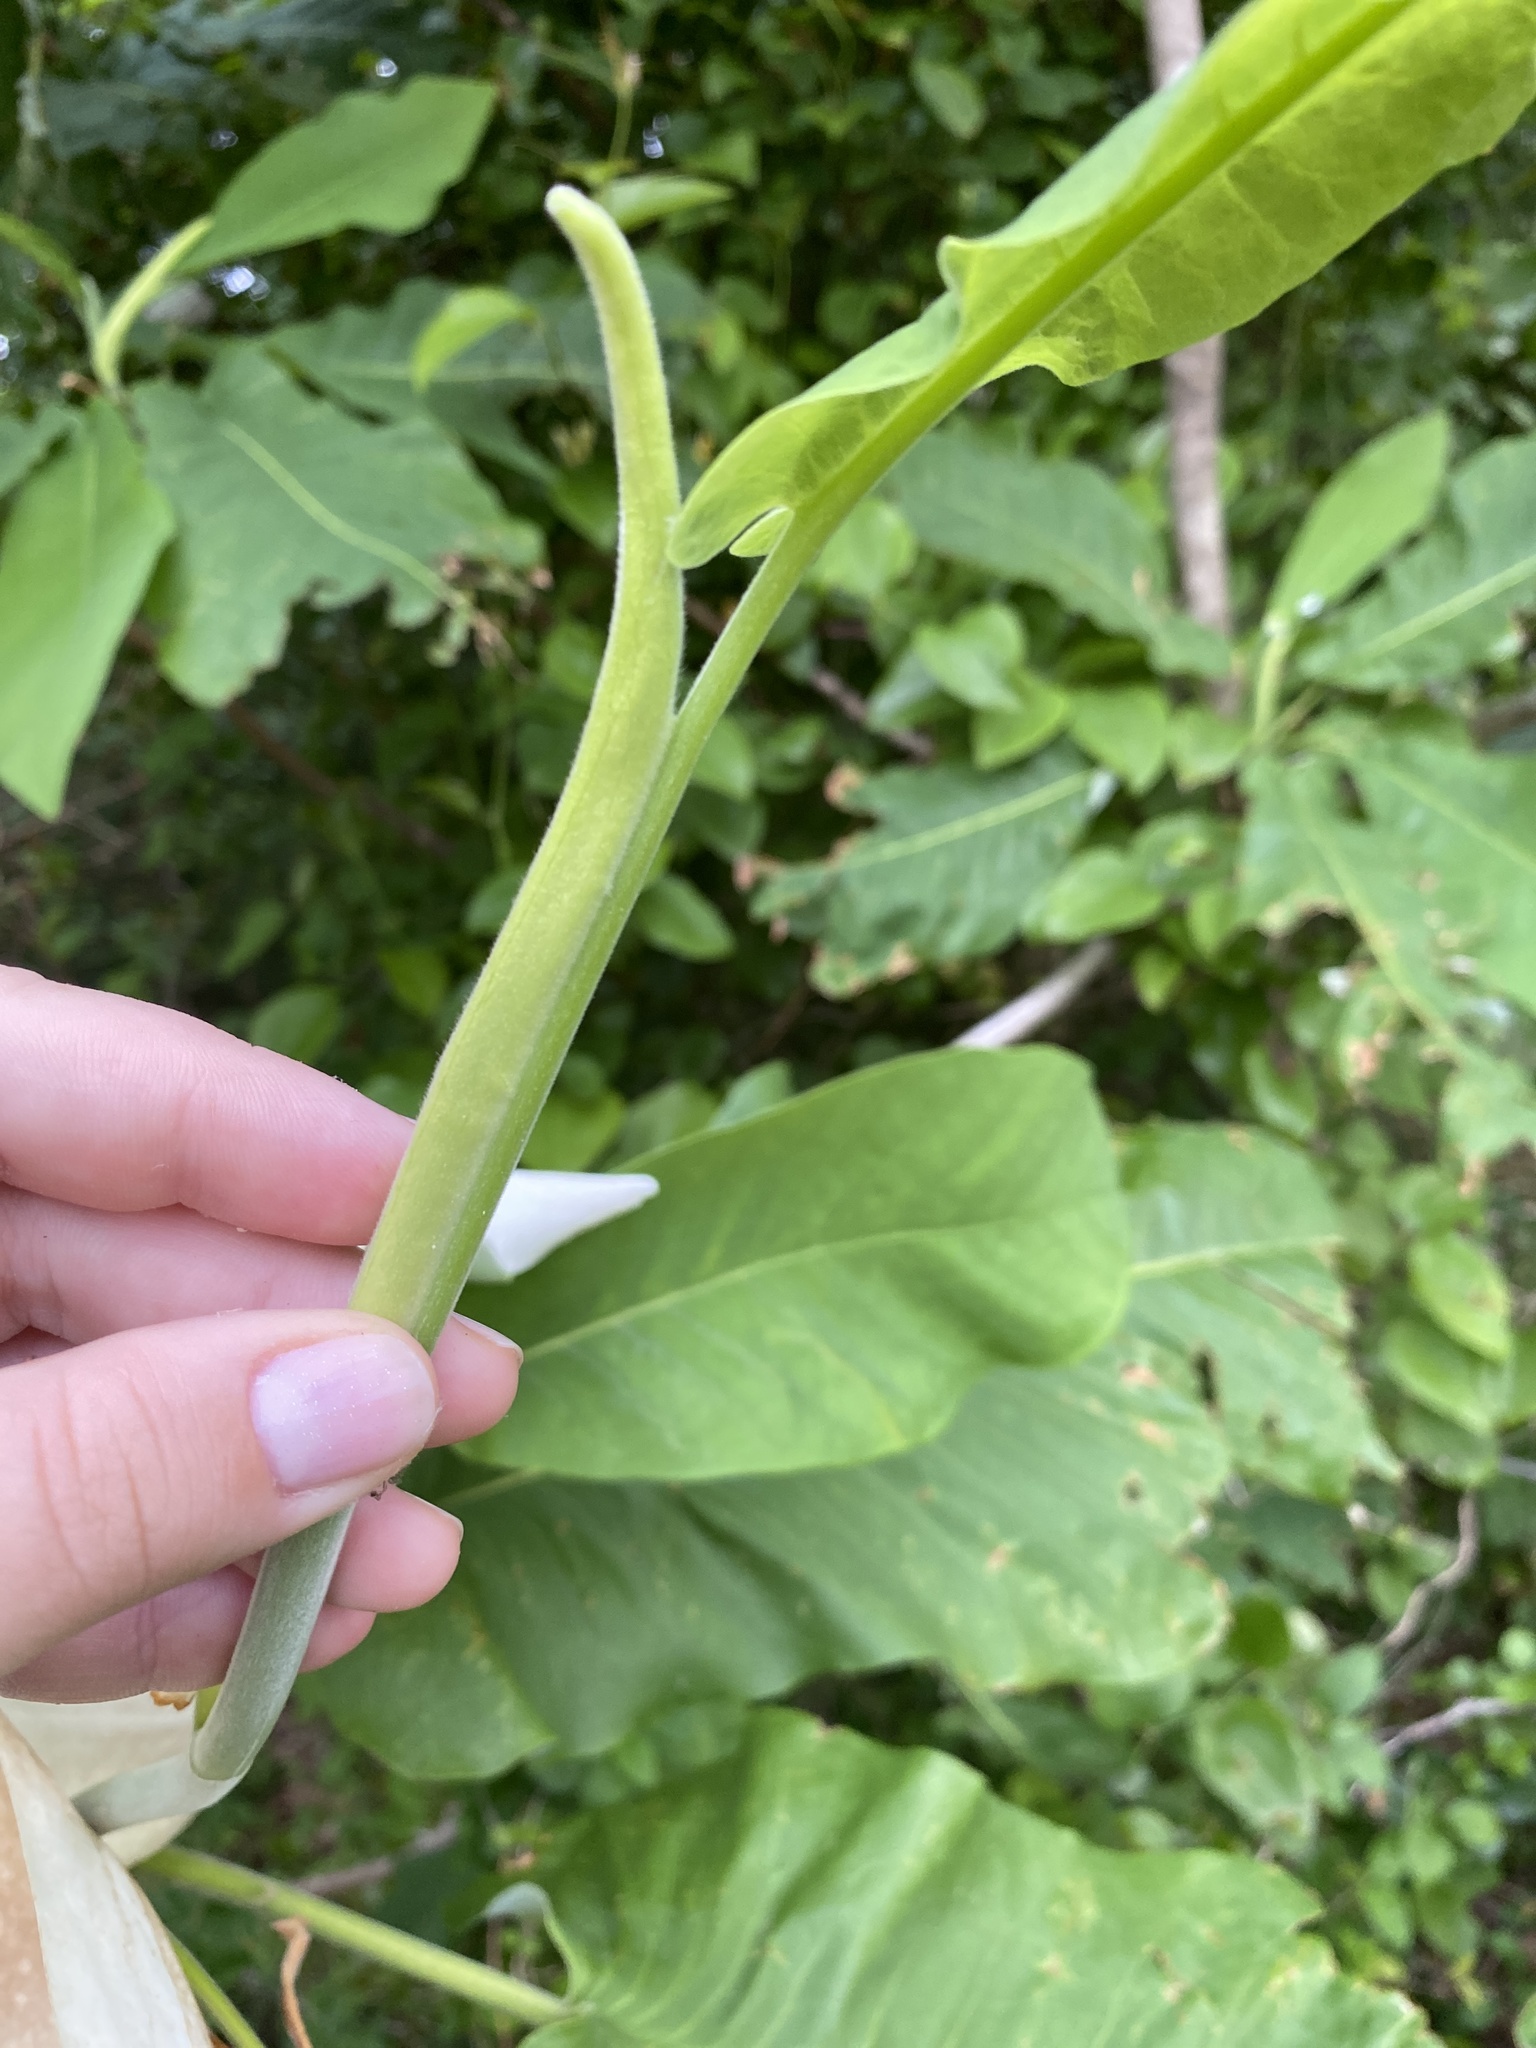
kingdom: Plantae
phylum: Tracheophyta
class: Magnoliopsida
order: Magnoliales
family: Magnoliaceae
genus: Magnolia
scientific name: Magnolia macrophylla
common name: Big-leaf magnolia
